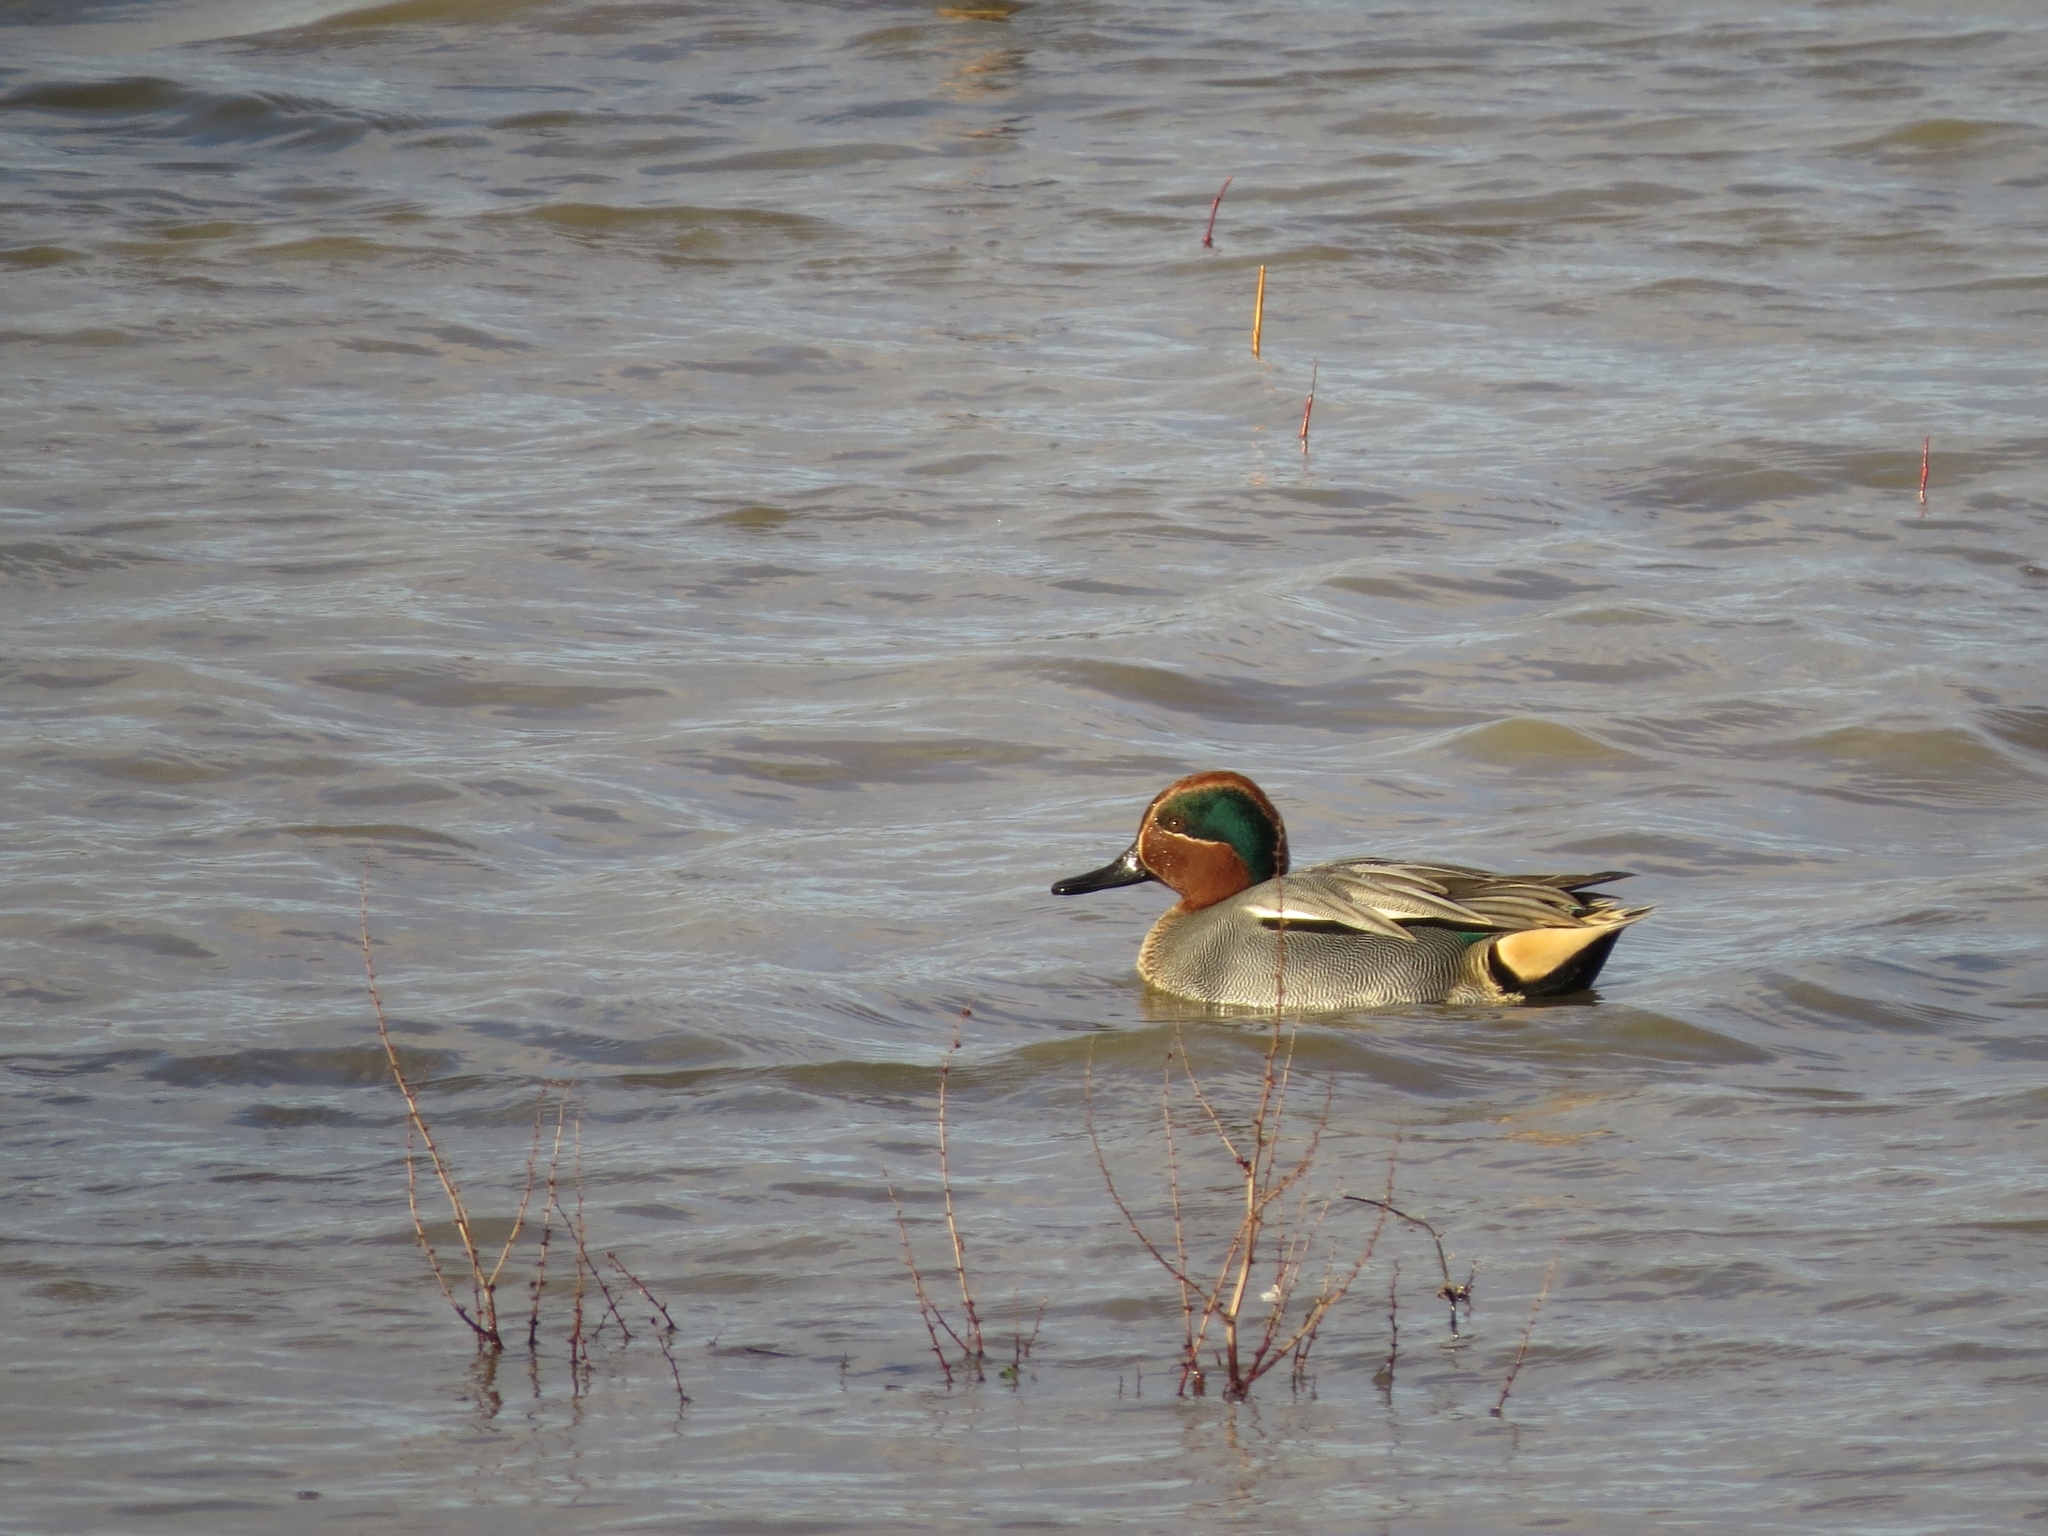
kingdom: Animalia
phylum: Chordata
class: Aves
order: Anseriformes
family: Anatidae
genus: Anas
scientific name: Anas crecca
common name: Eurasian teal
